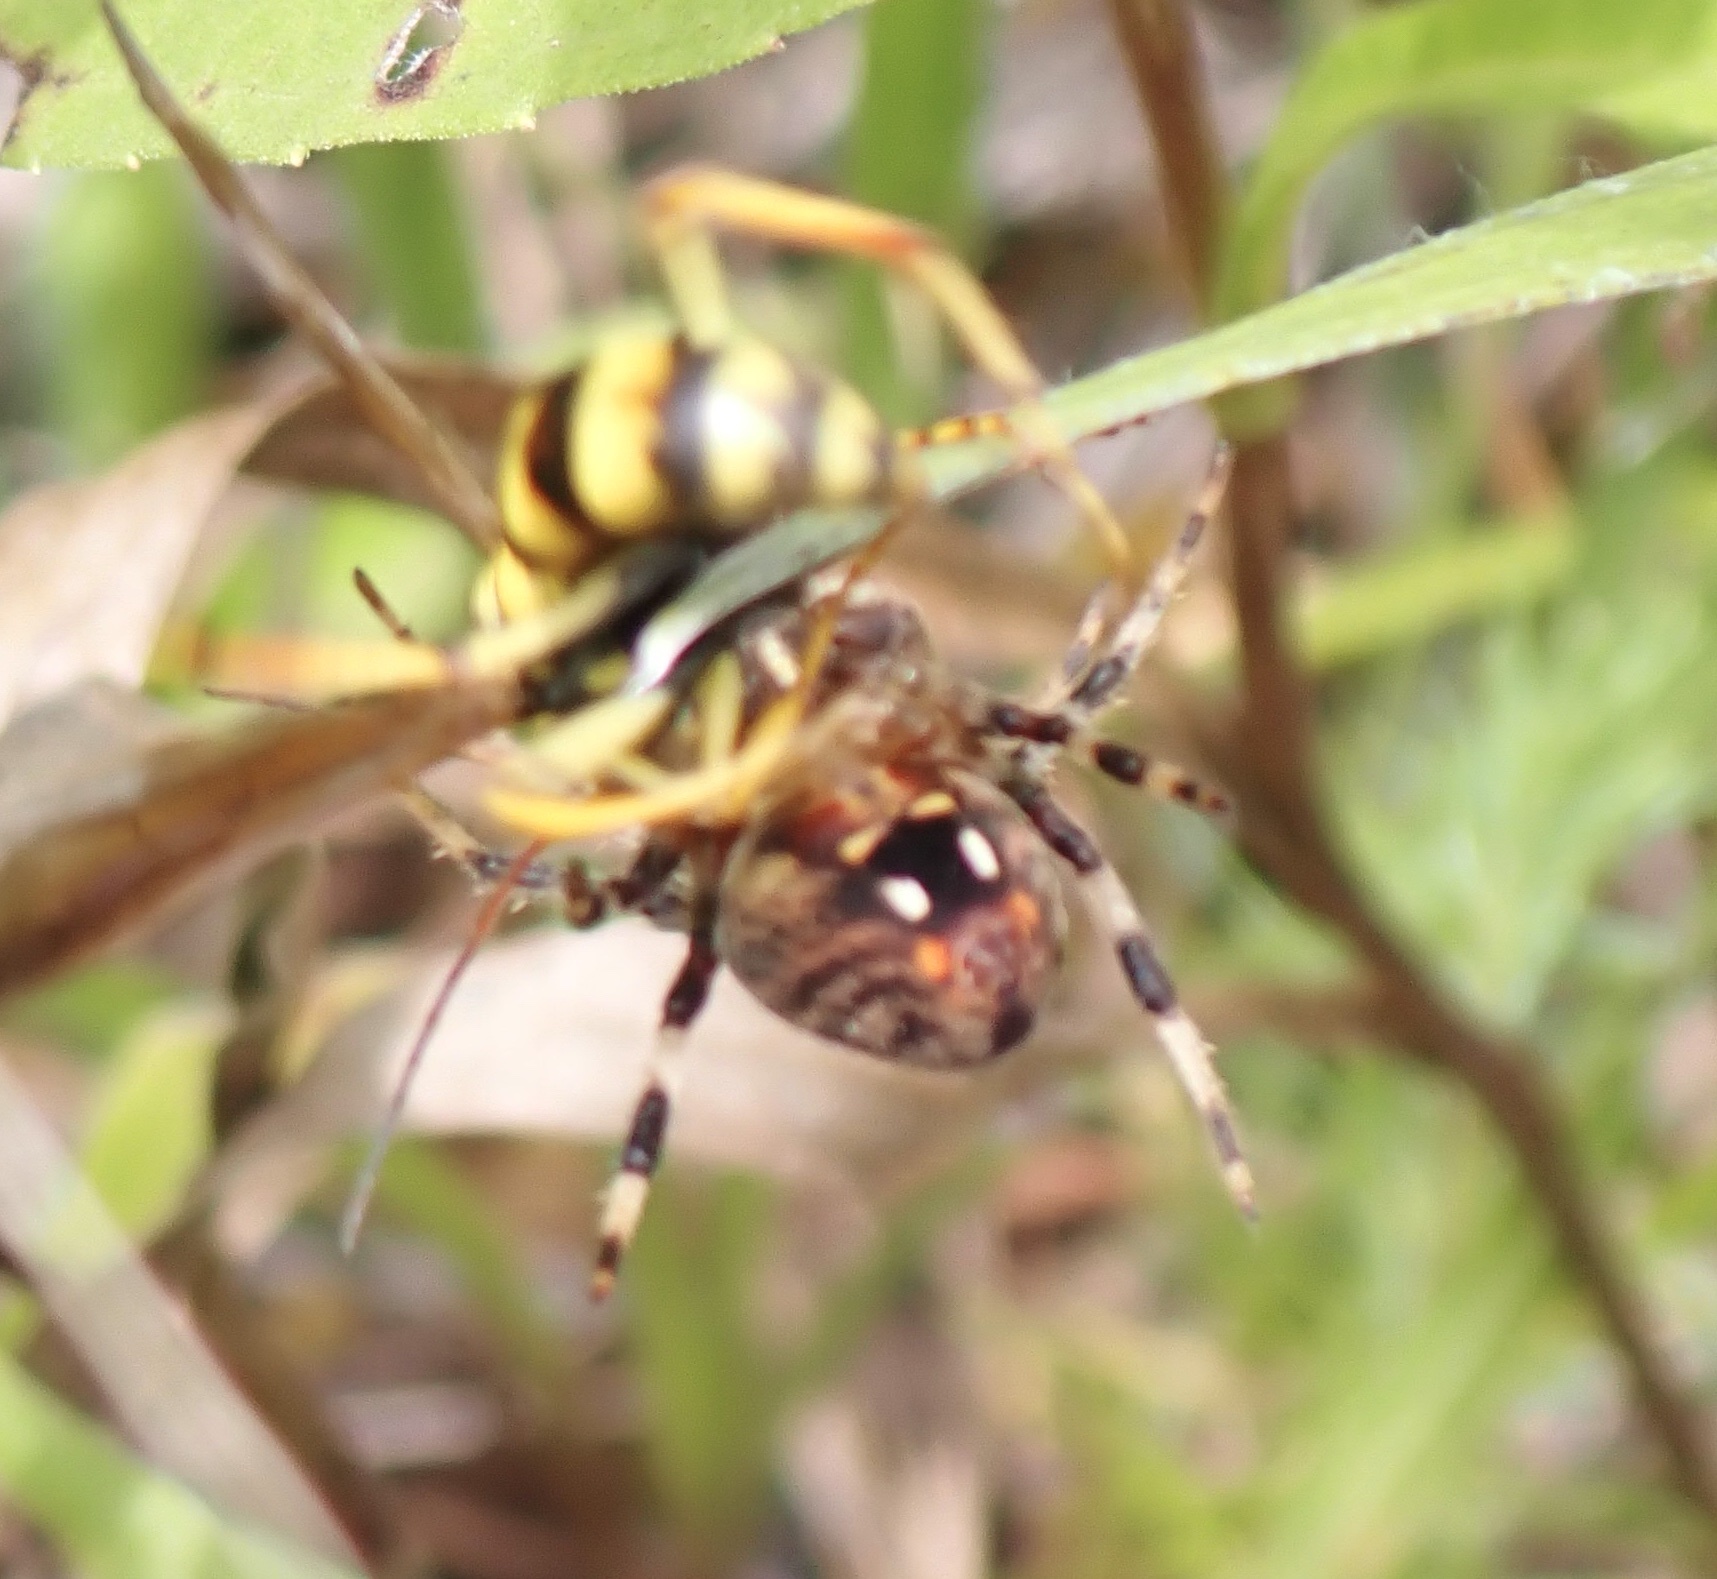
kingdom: Animalia
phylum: Arthropoda
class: Insecta
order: Hymenoptera
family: Pompilidae
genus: Poecilopompilus
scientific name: Poecilopompilus interruptus
